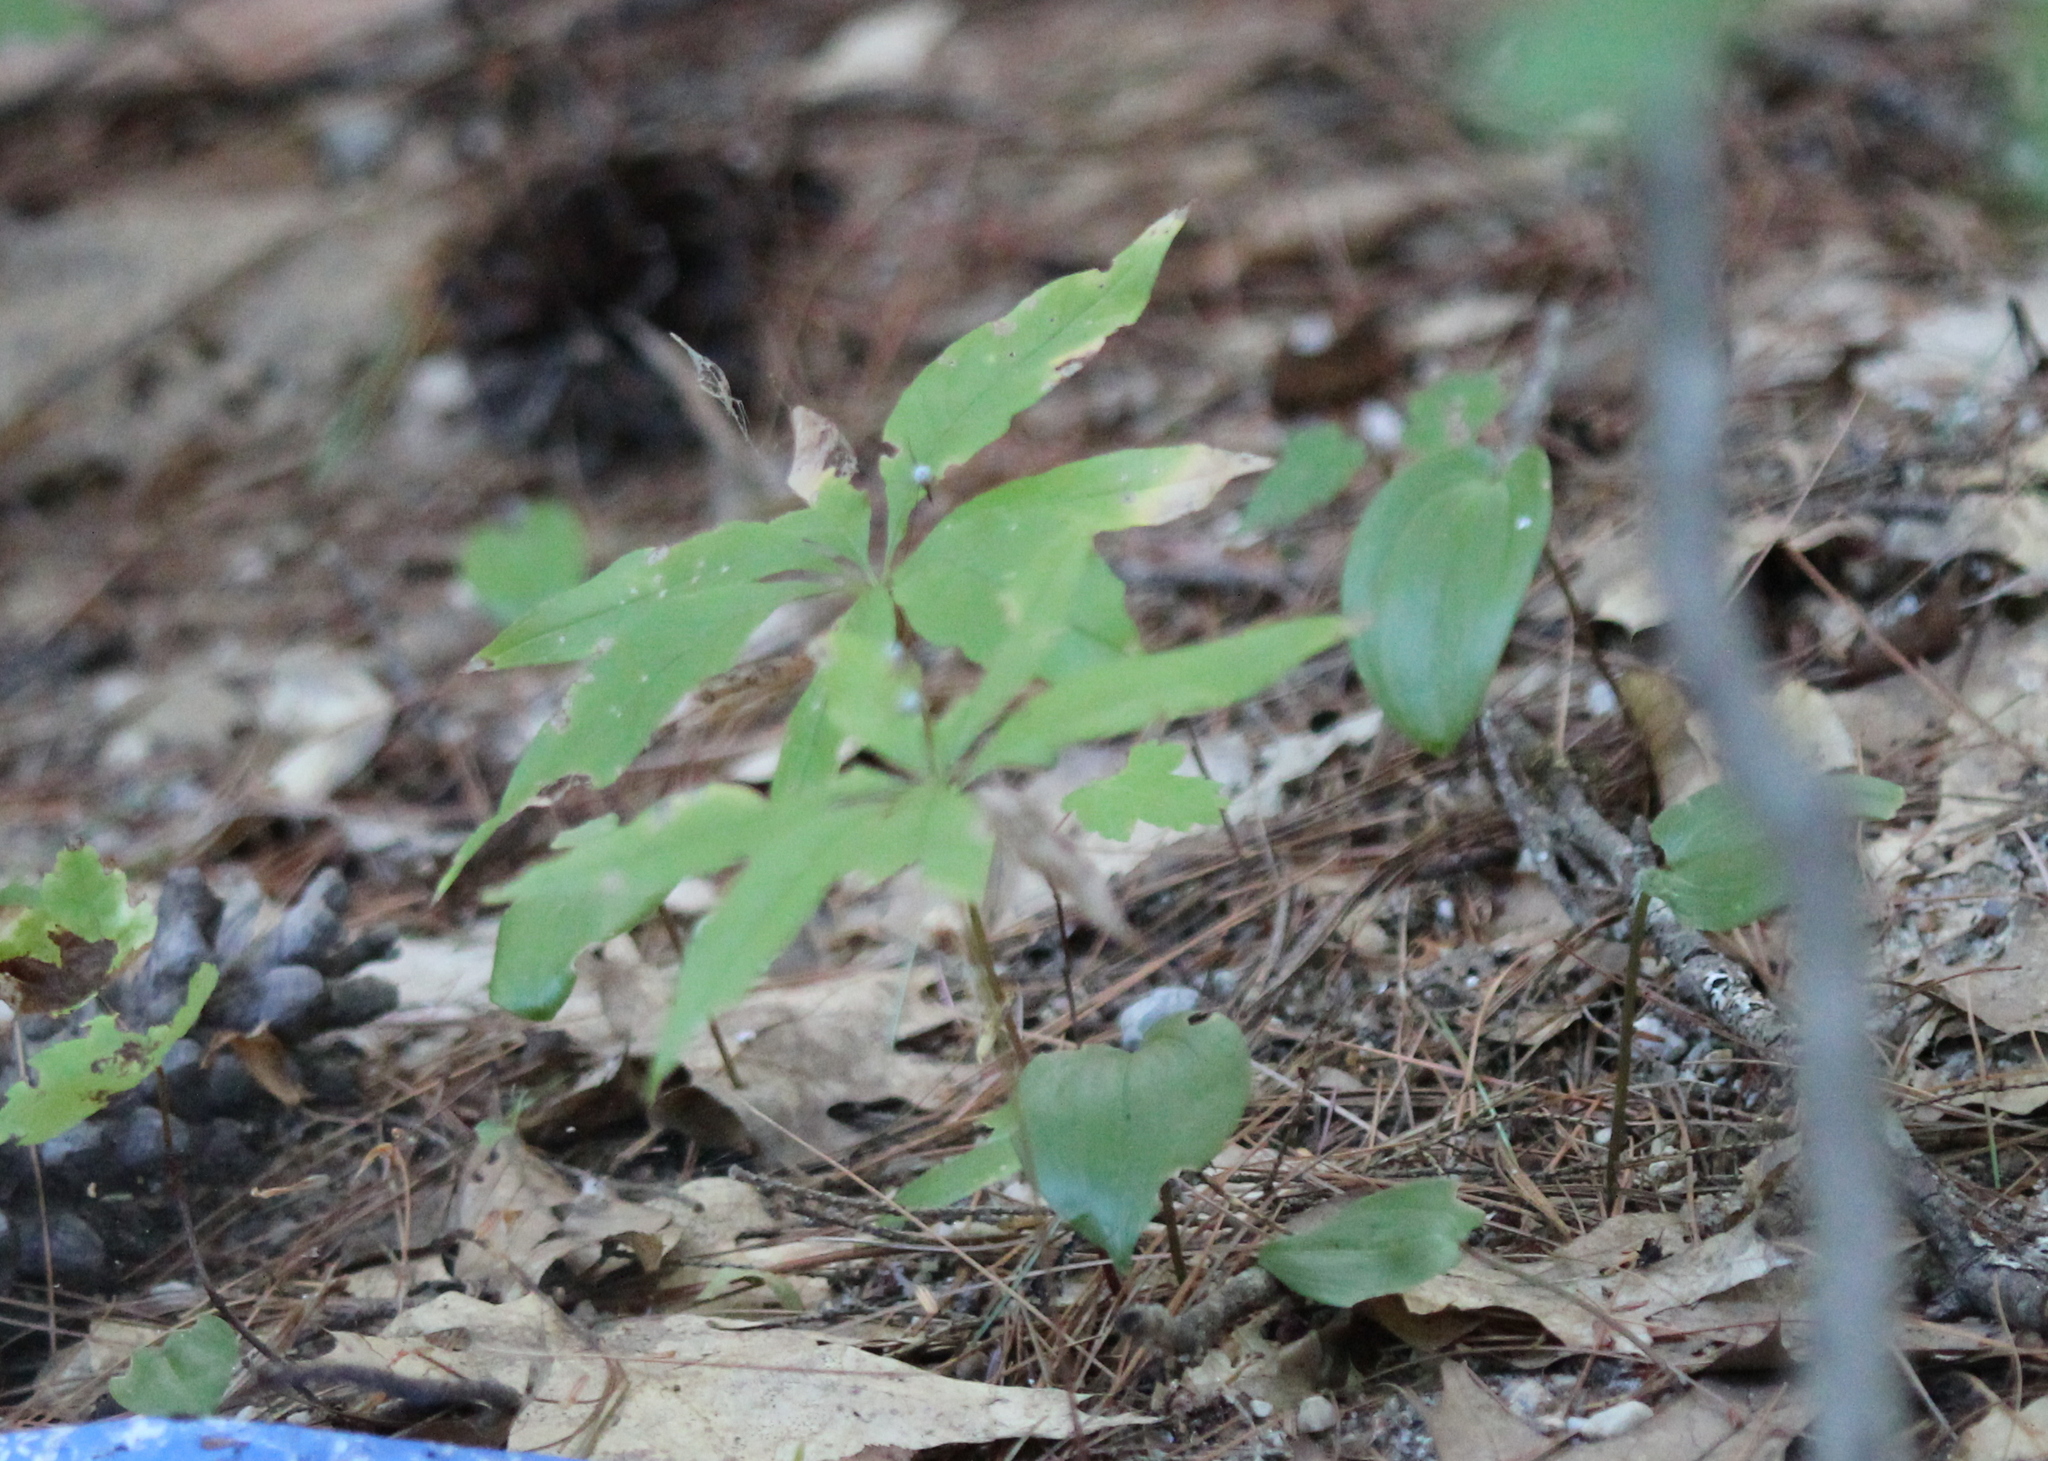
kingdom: Plantae
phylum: Tracheophyta
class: Magnoliopsida
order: Ericales
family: Primulaceae
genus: Lysimachia
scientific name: Lysimachia borealis
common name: American starflower
